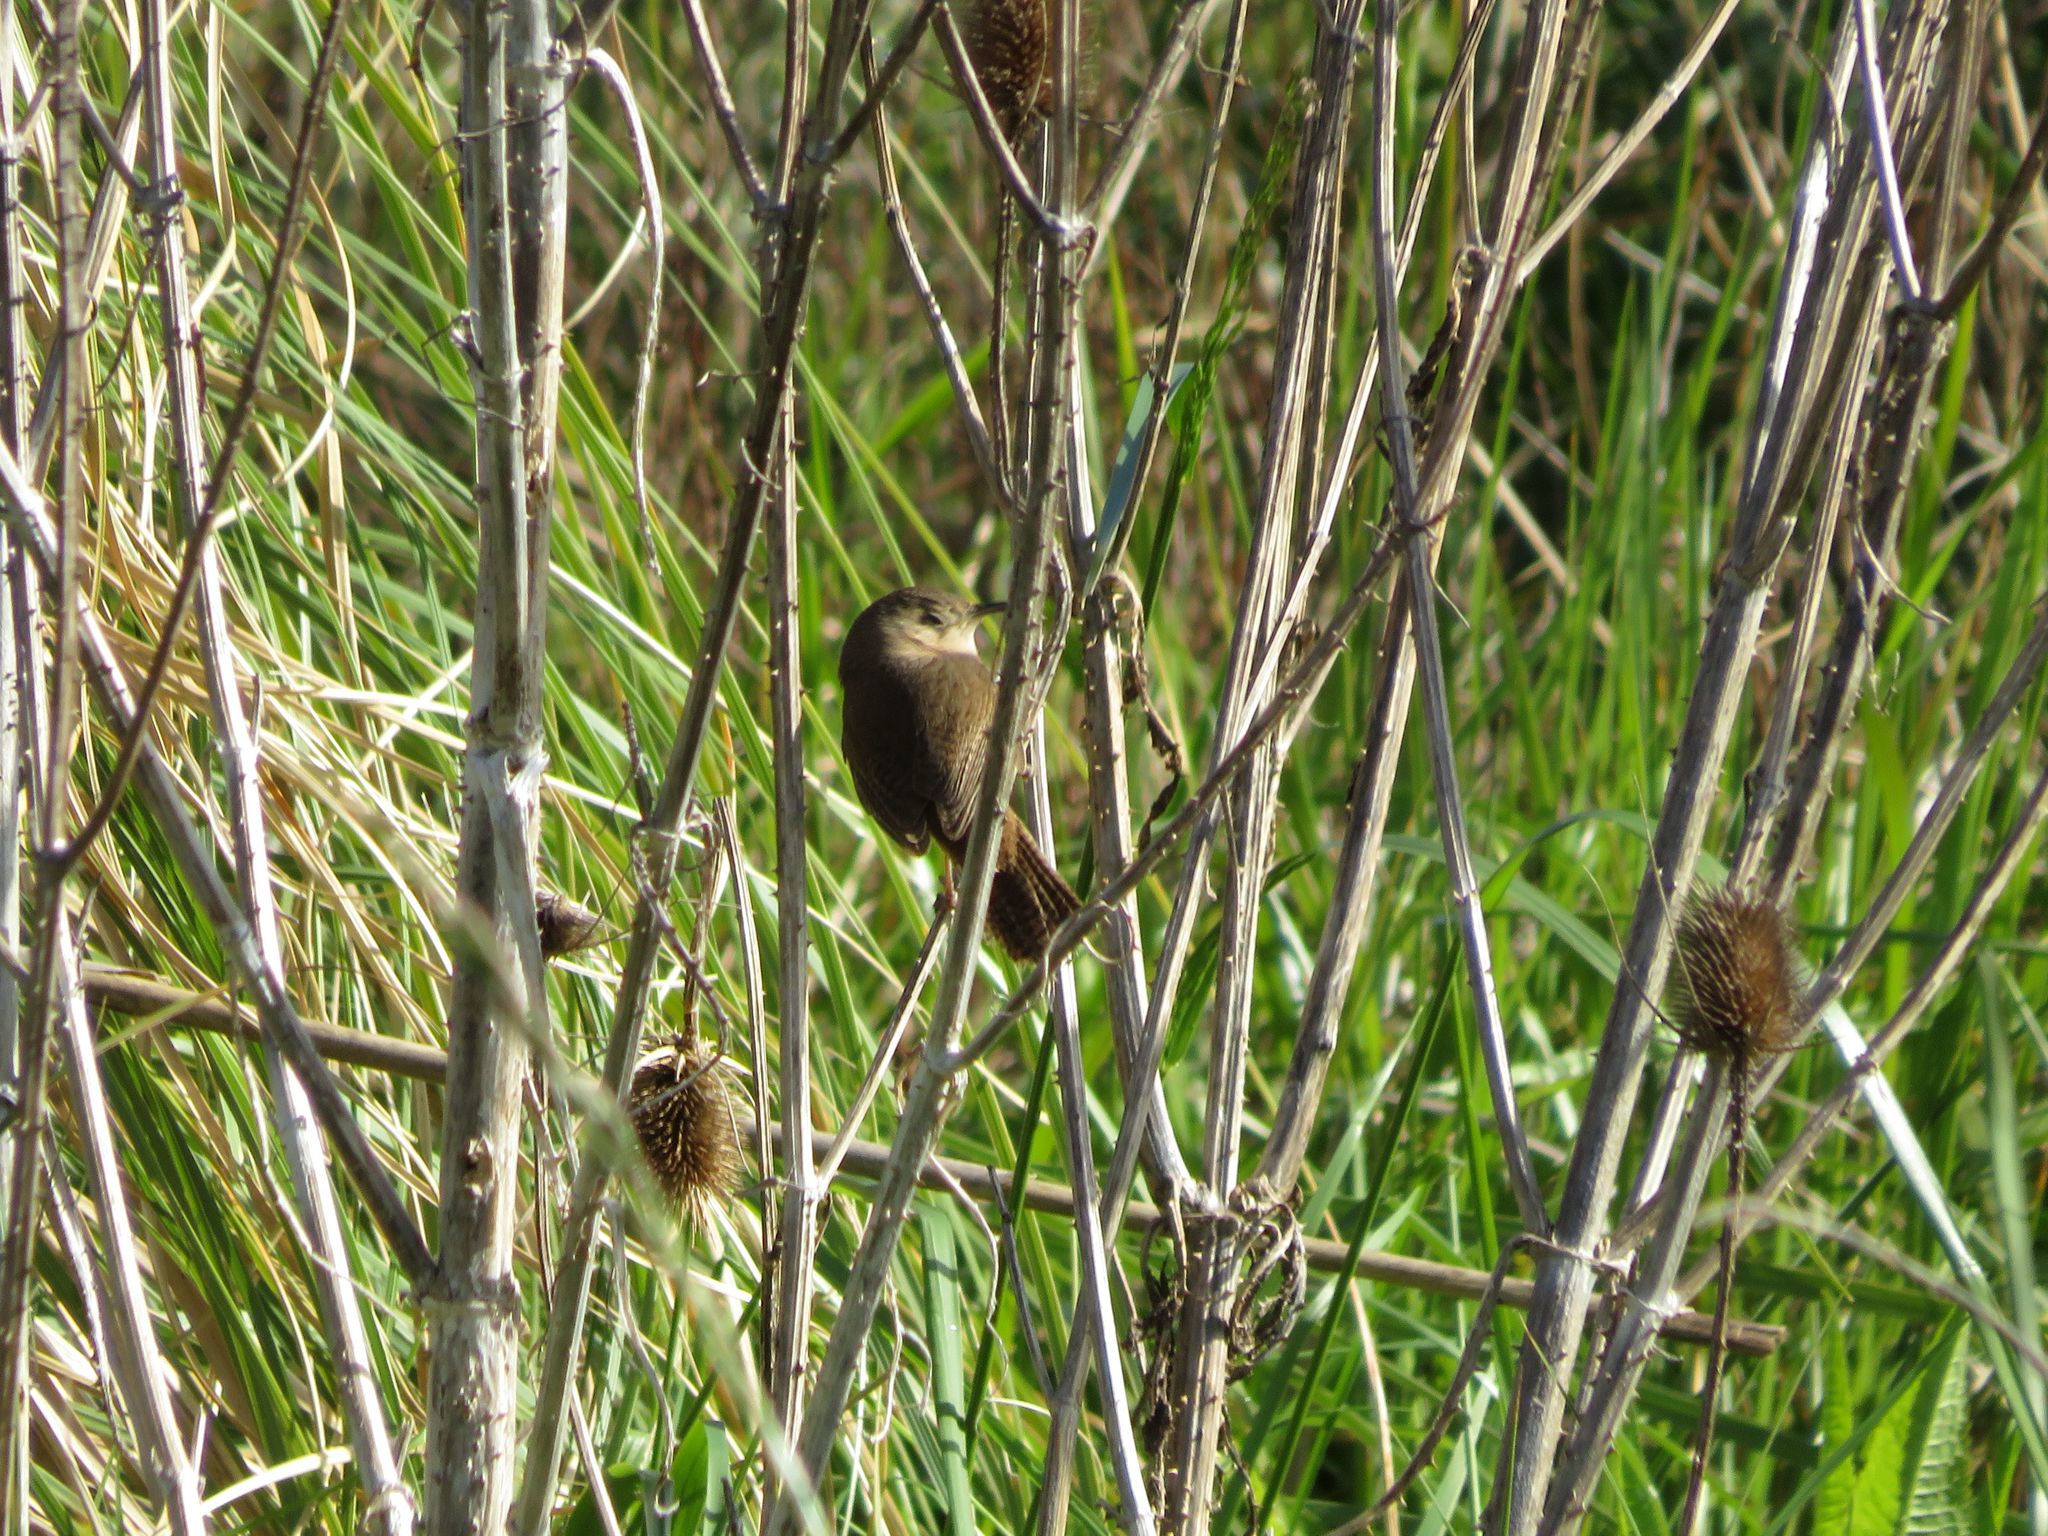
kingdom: Animalia
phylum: Chordata
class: Aves
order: Passeriformes
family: Troglodytidae
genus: Troglodytes
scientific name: Troglodytes aedon
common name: House wren
